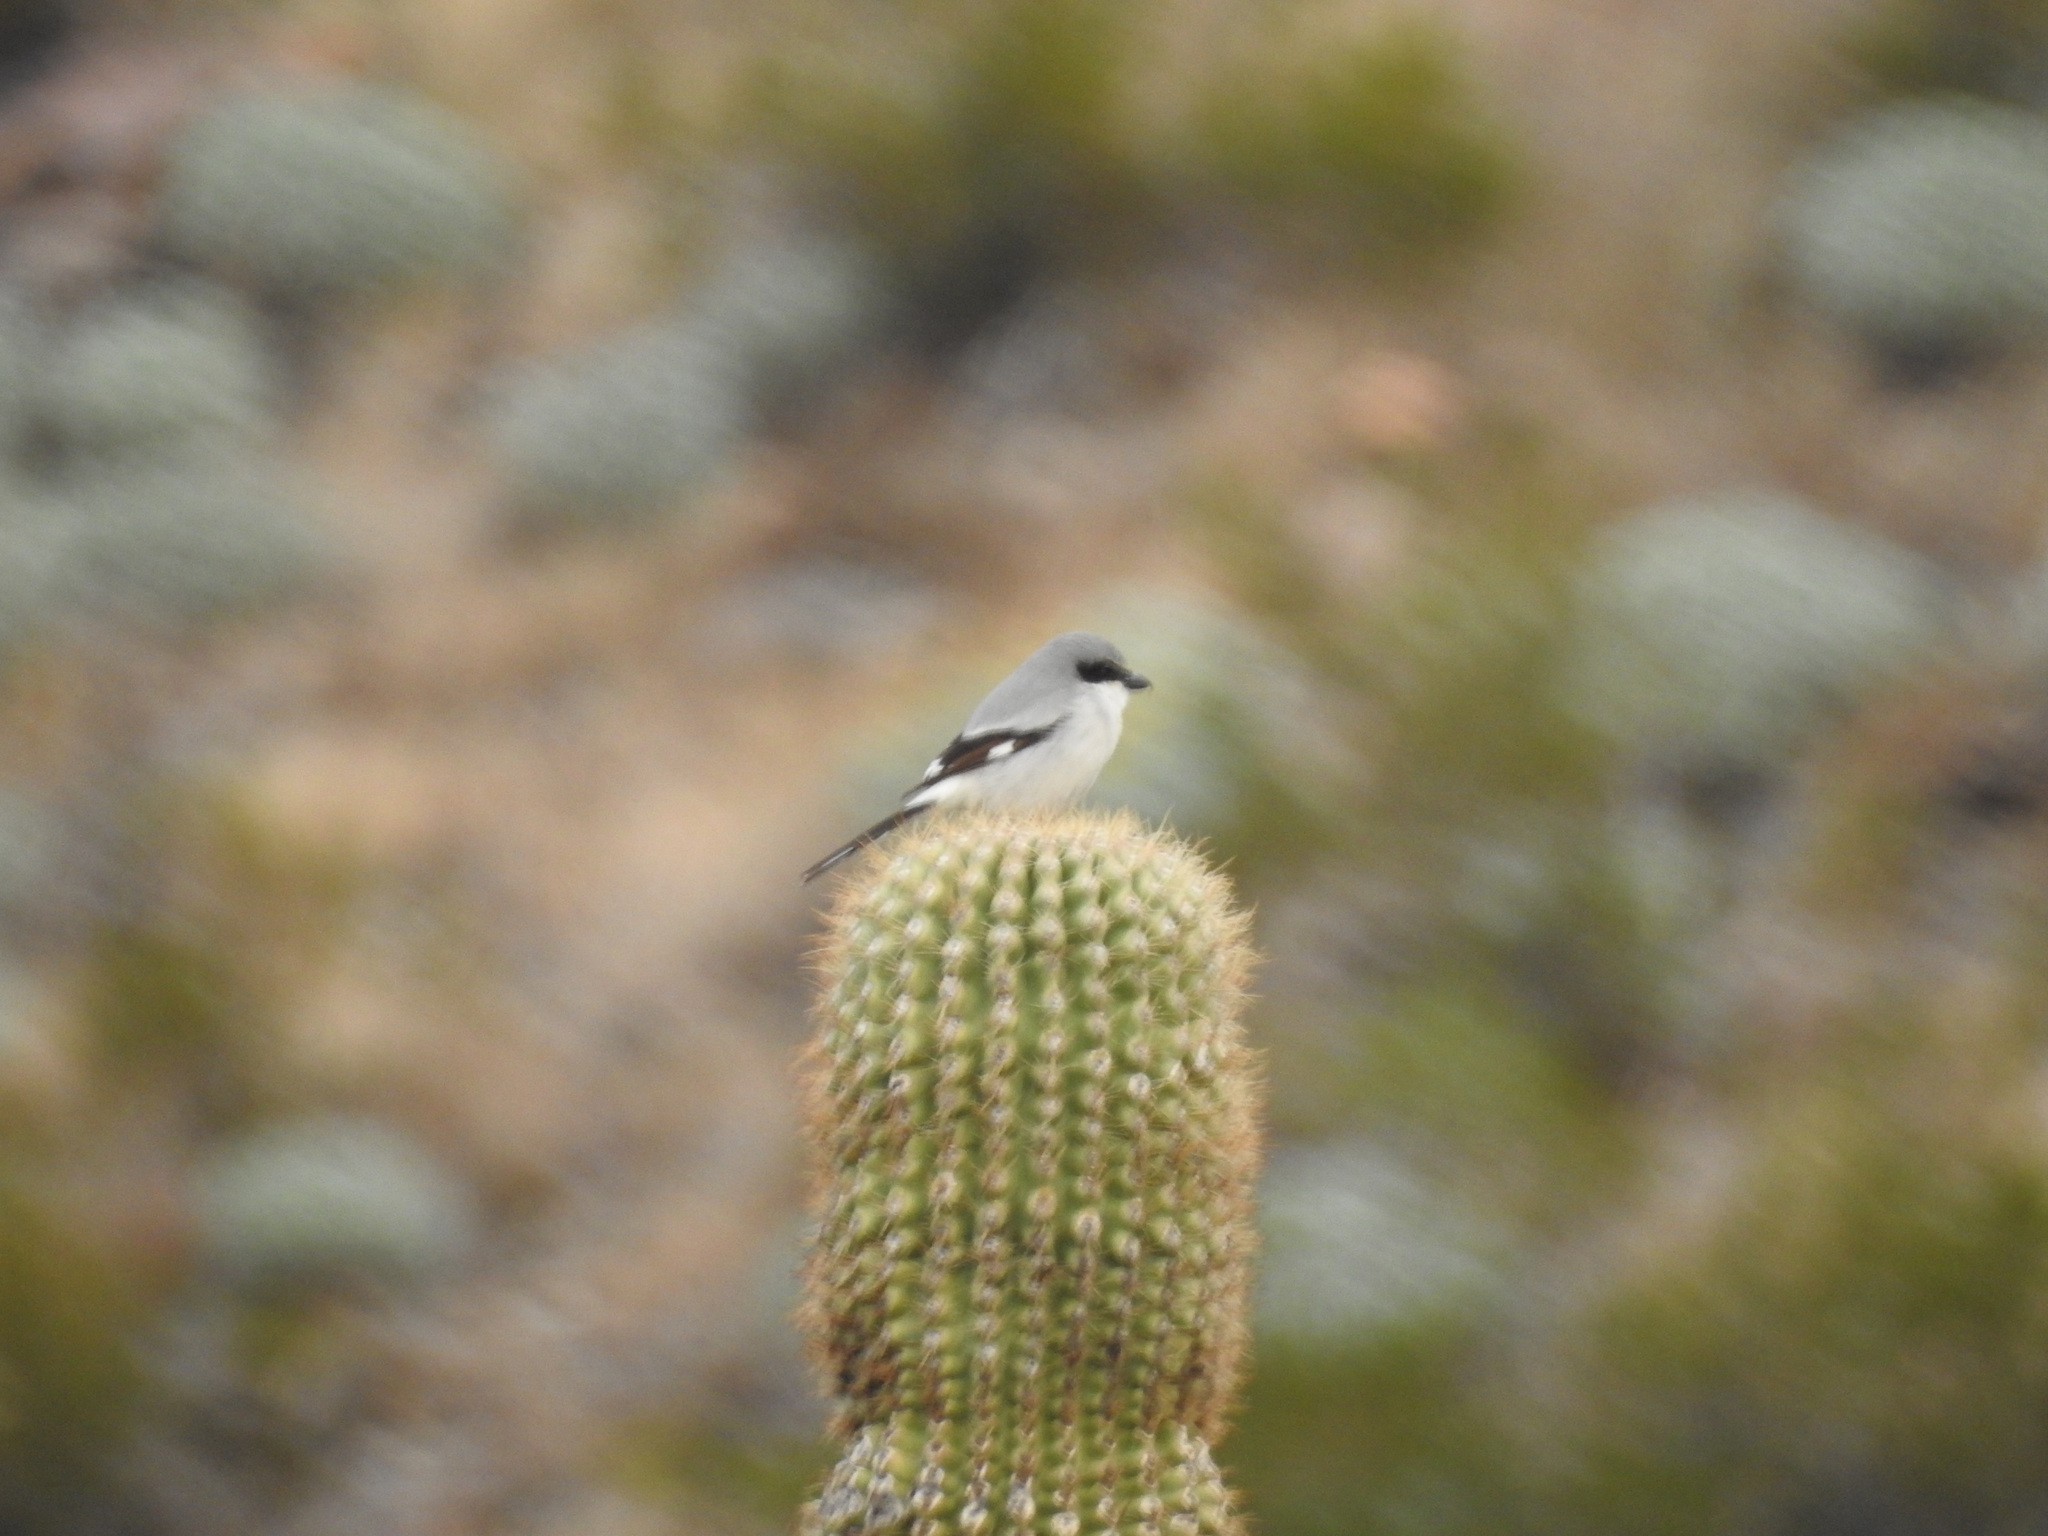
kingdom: Animalia
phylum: Chordata
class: Aves
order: Passeriformes
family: Laniidae
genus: Lanius
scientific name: Lanius ludovicianus
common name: Loggerhead shrike
